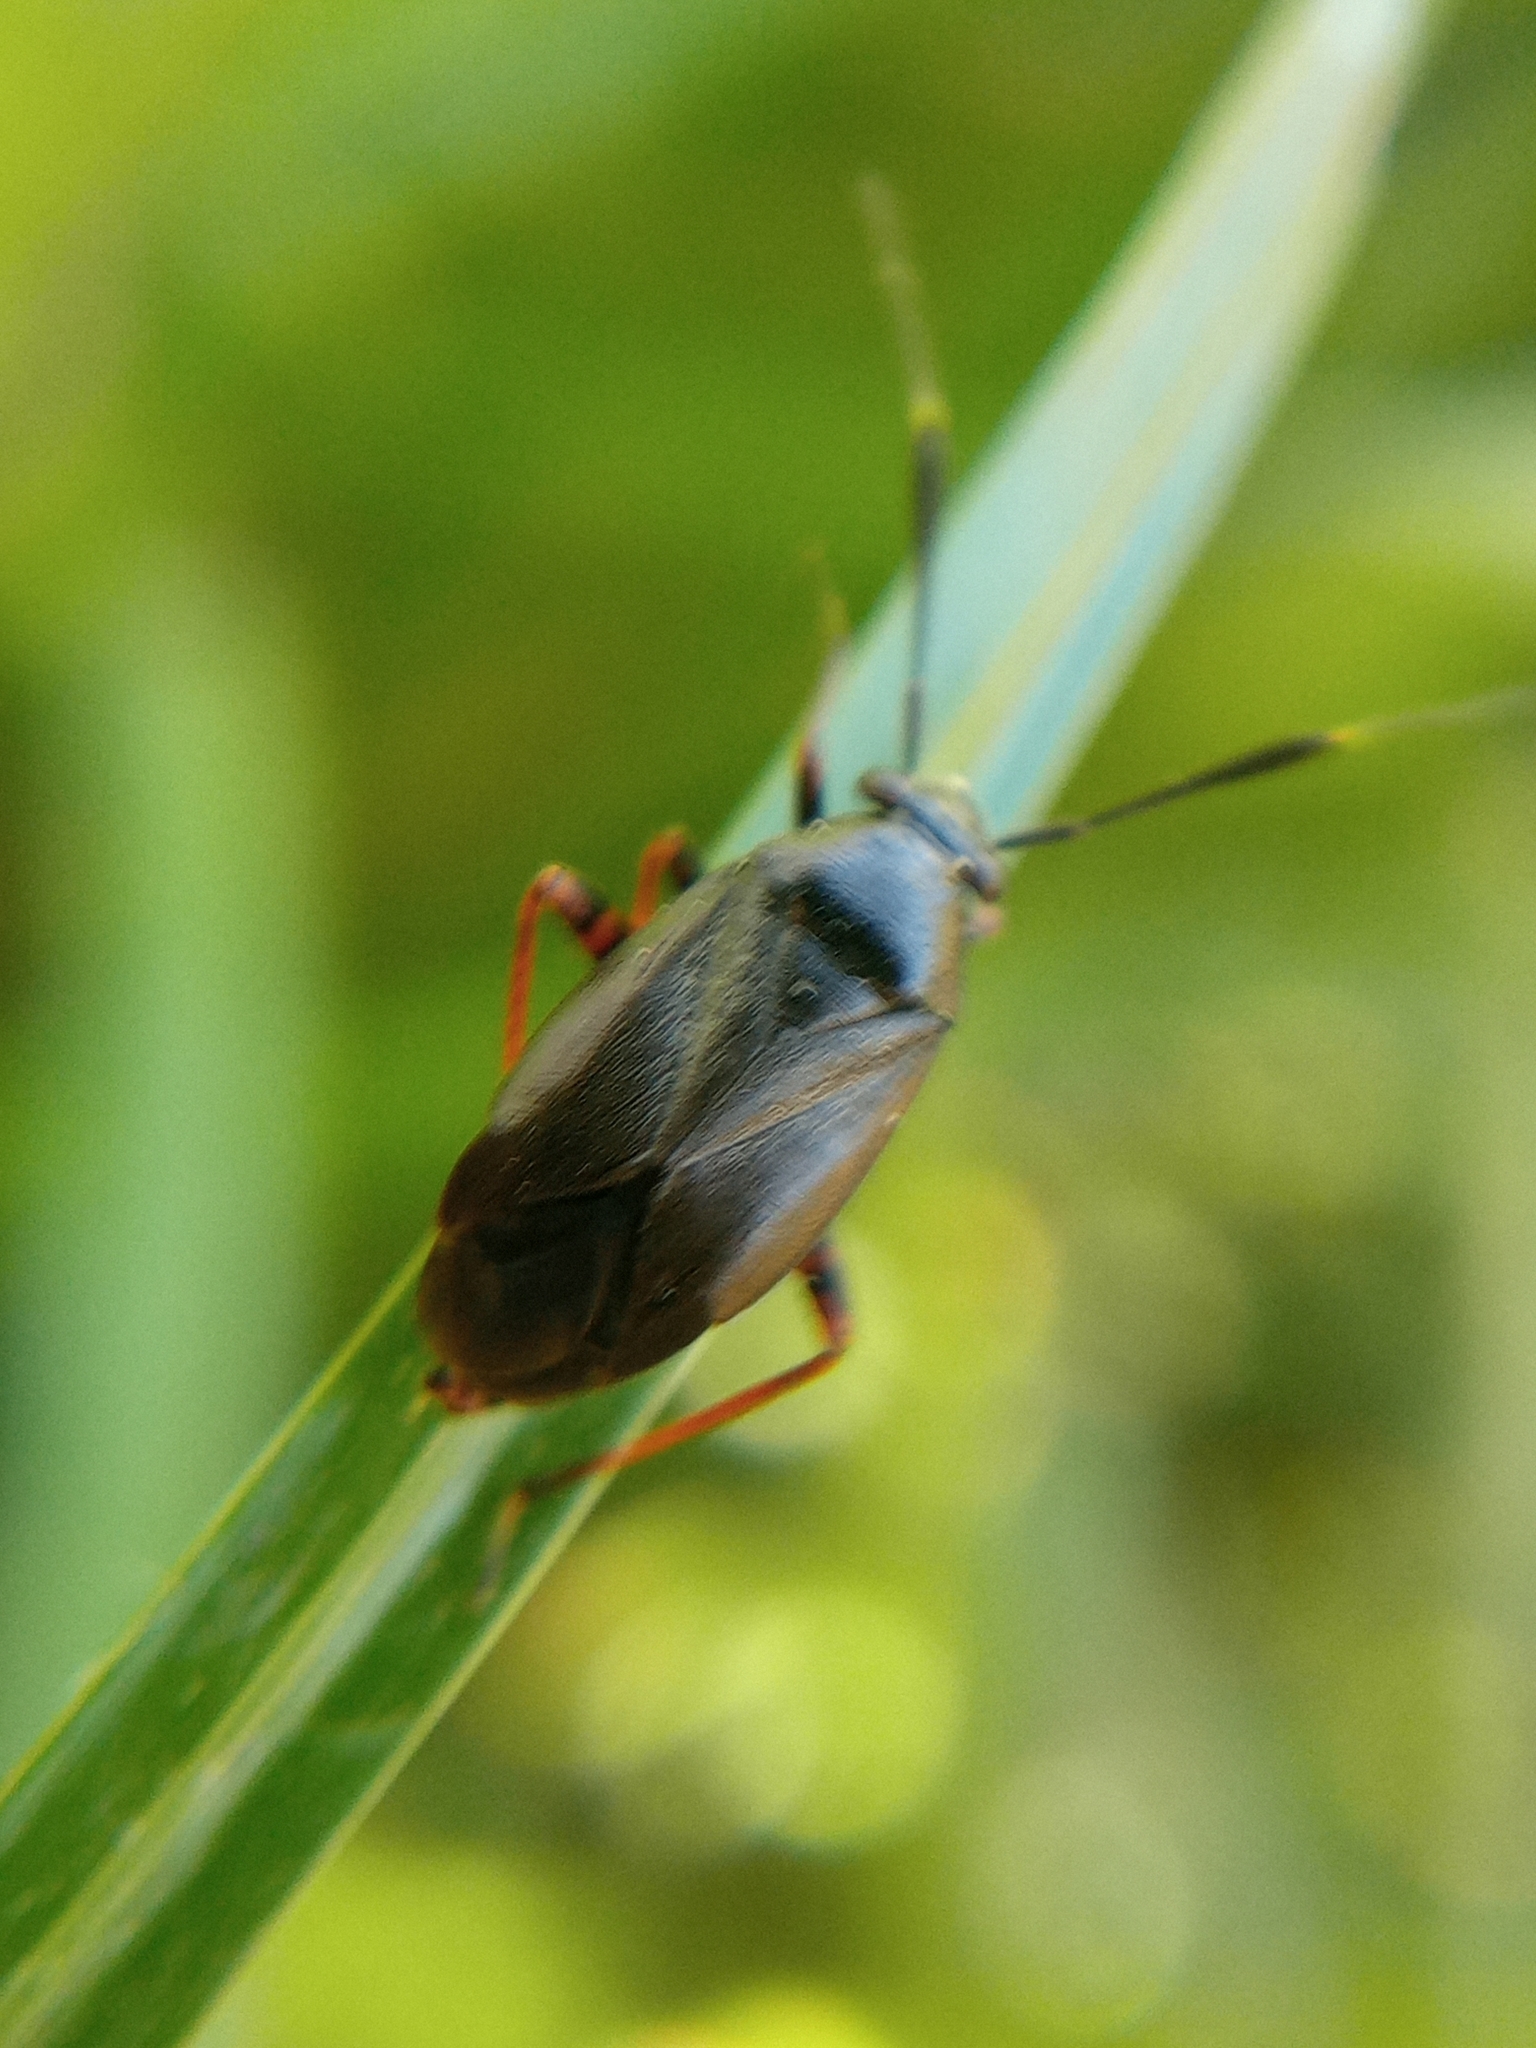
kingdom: Animalia
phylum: Arthropoda
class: Insecta
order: Hemiptera
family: Miridae
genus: Capsus
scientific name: Capsus ater
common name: Black plant bug
